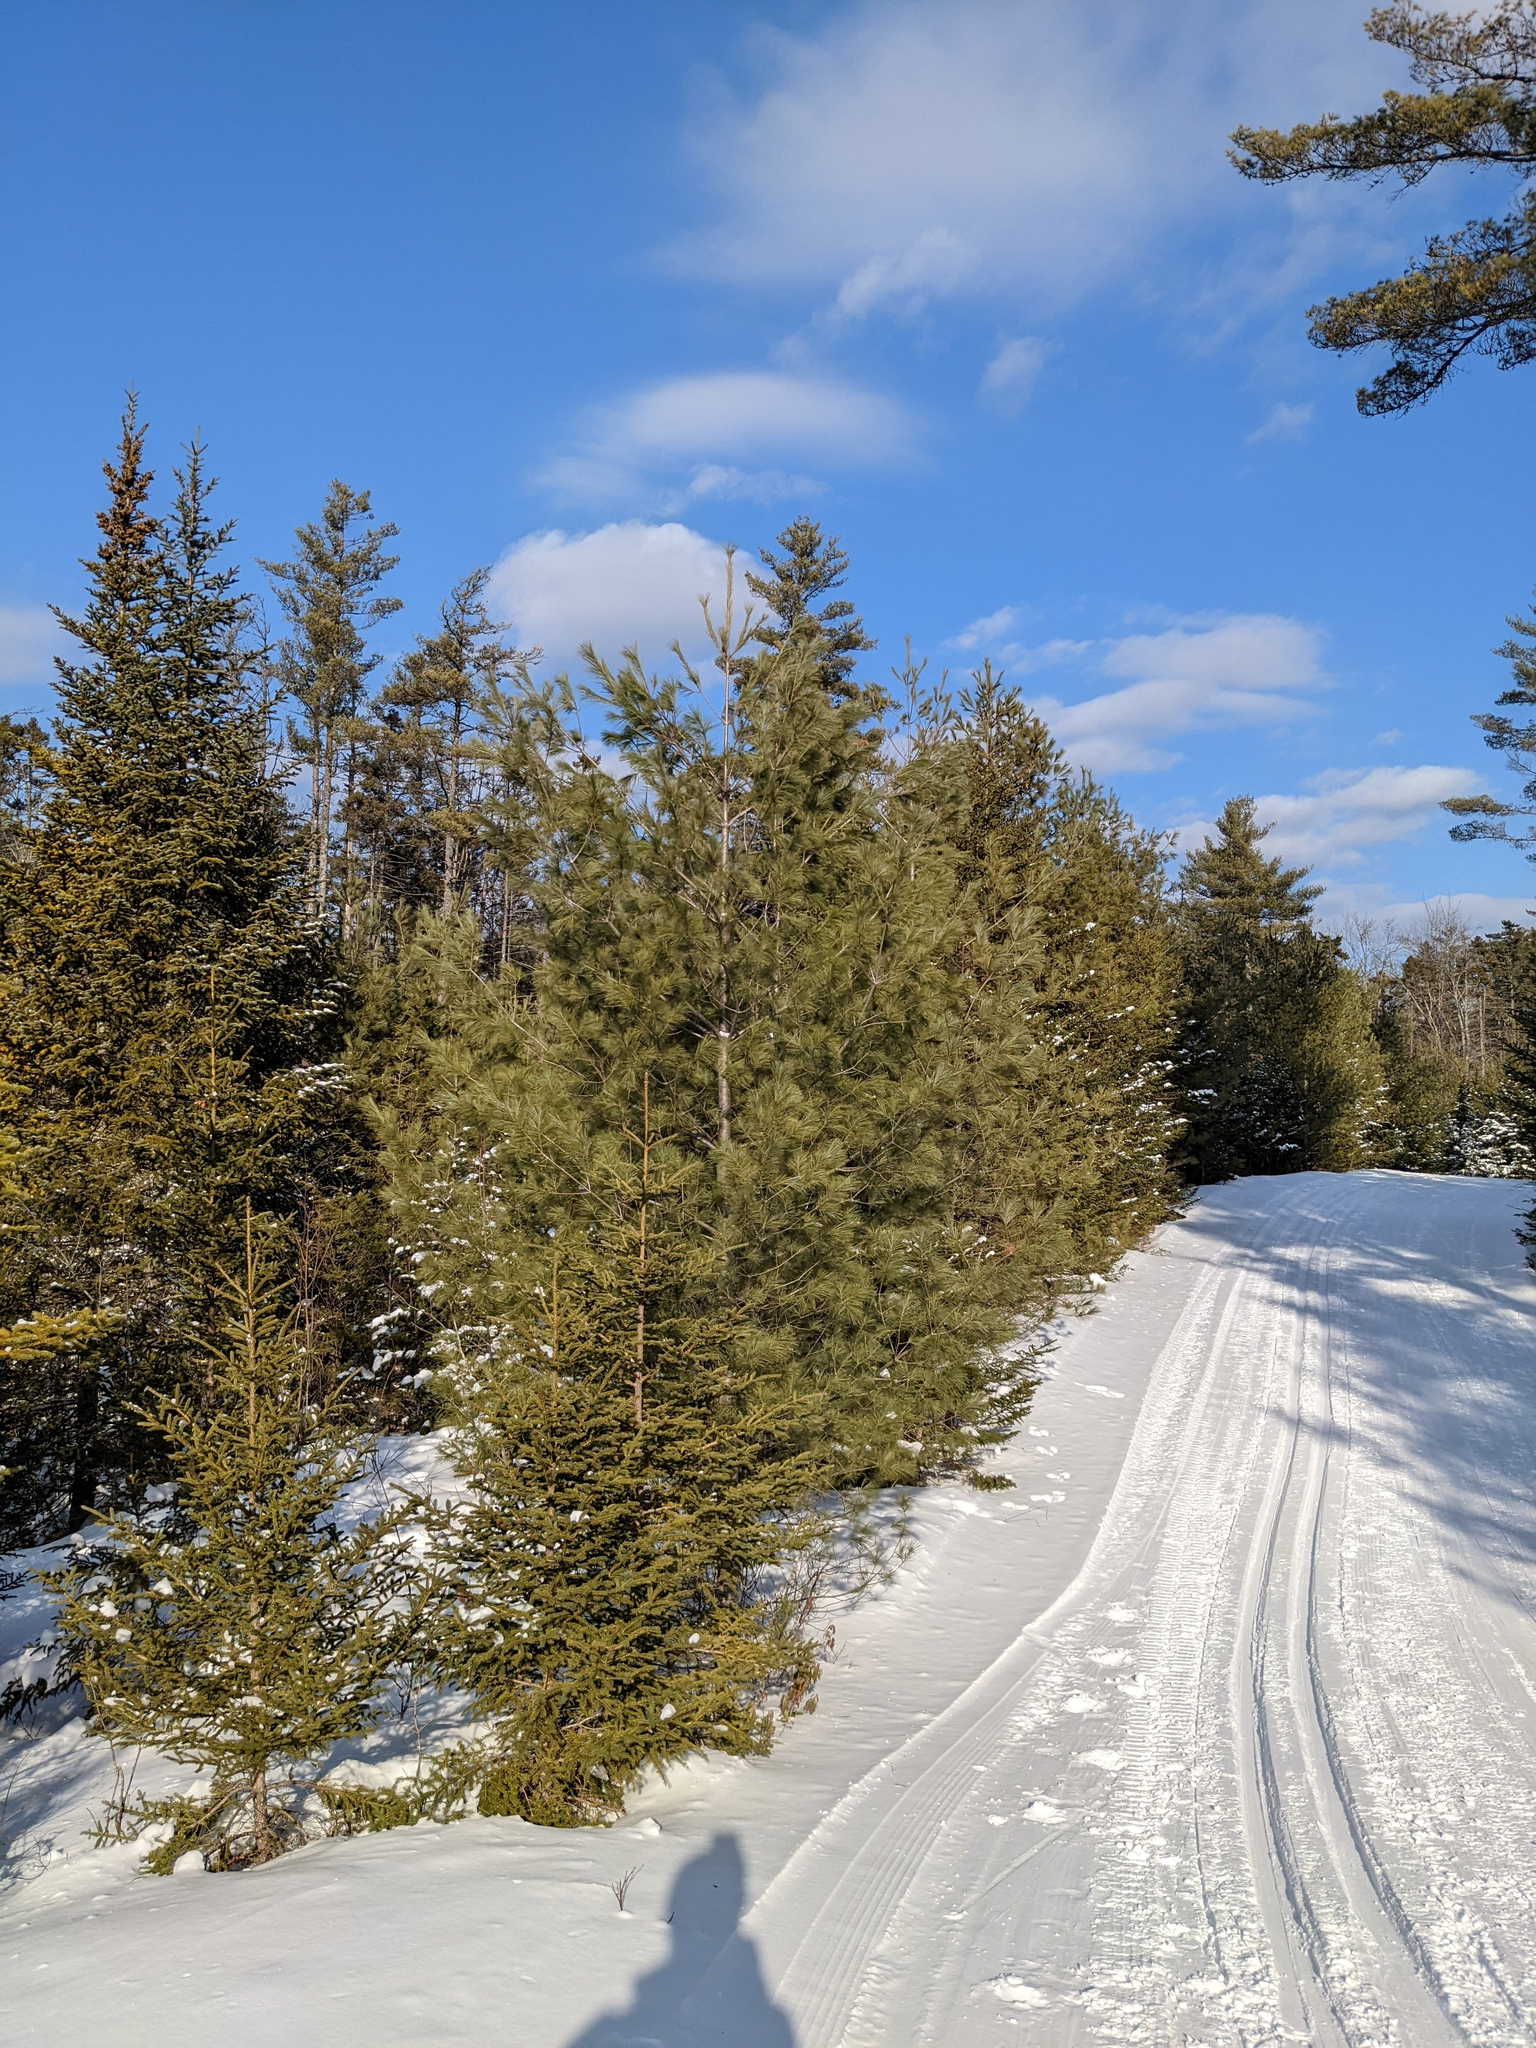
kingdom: Plantae
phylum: Tracheophyta
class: Pinopsida
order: Pinales
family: Pinaceae
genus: Pinus
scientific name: Pinus strobus
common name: Weymouth pine
